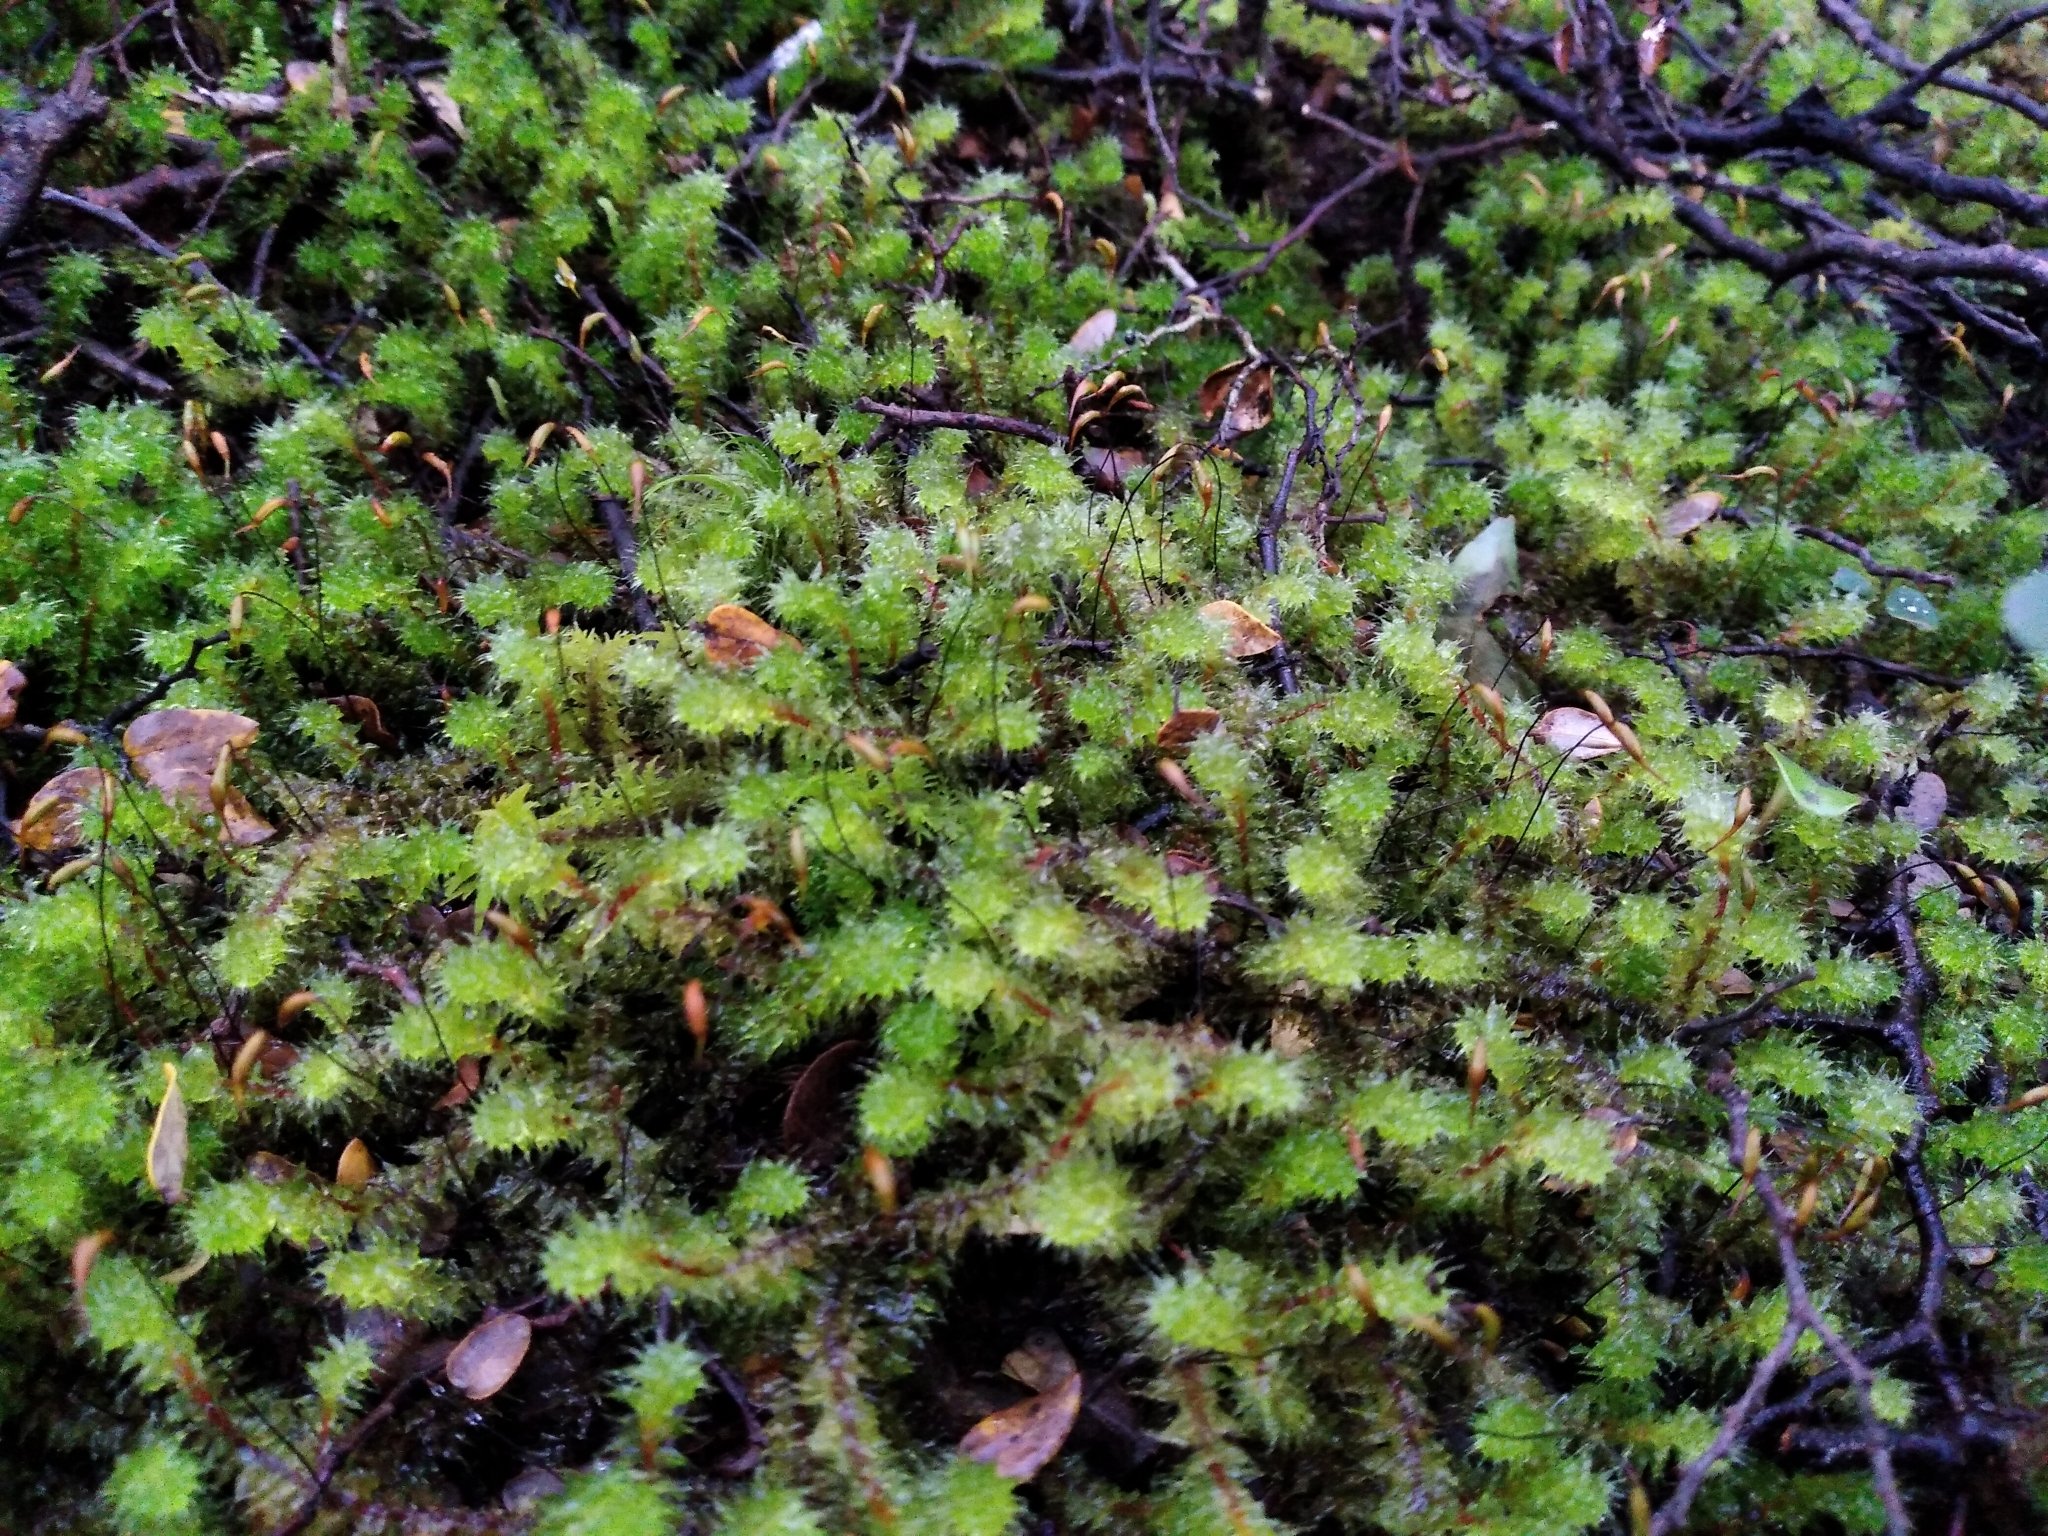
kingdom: Plantae
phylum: Bryophyta
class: Bryopsida
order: Ptychomniales
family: Ptychomniaceae
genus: Ptychomnion
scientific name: Ptychomnion aciculare
